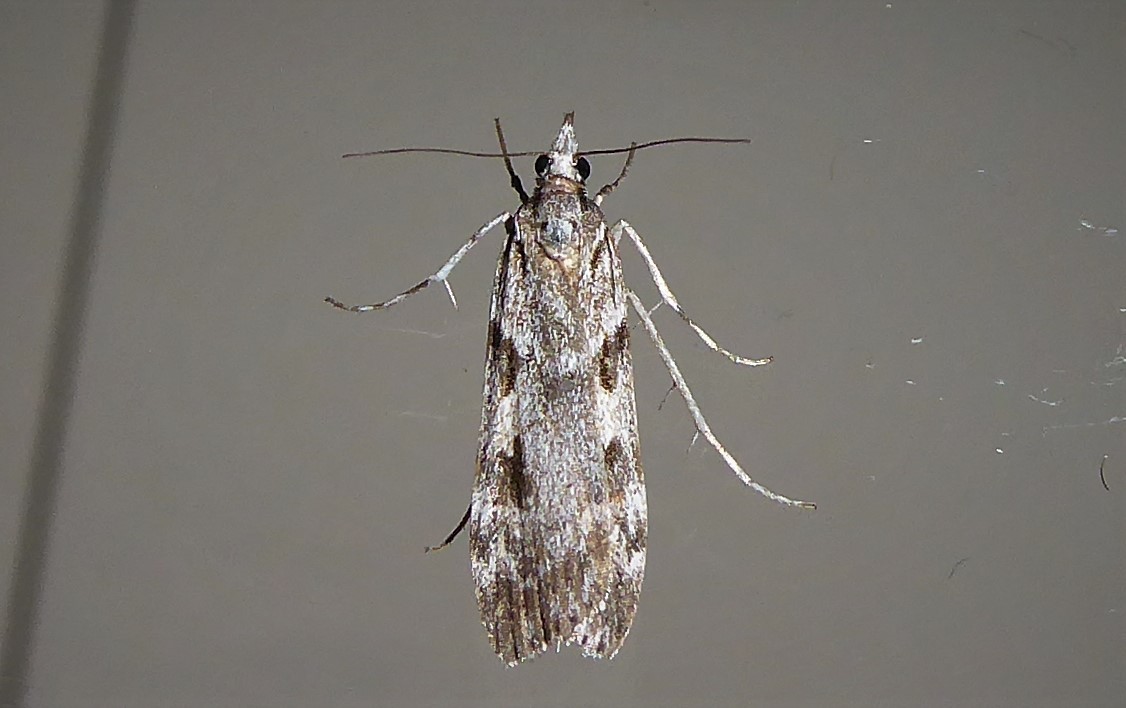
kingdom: Animalia
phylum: Arthropoda
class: Insecta
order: Lepidoptera
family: Crambidae
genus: Scoparia
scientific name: Scoparia halopis
